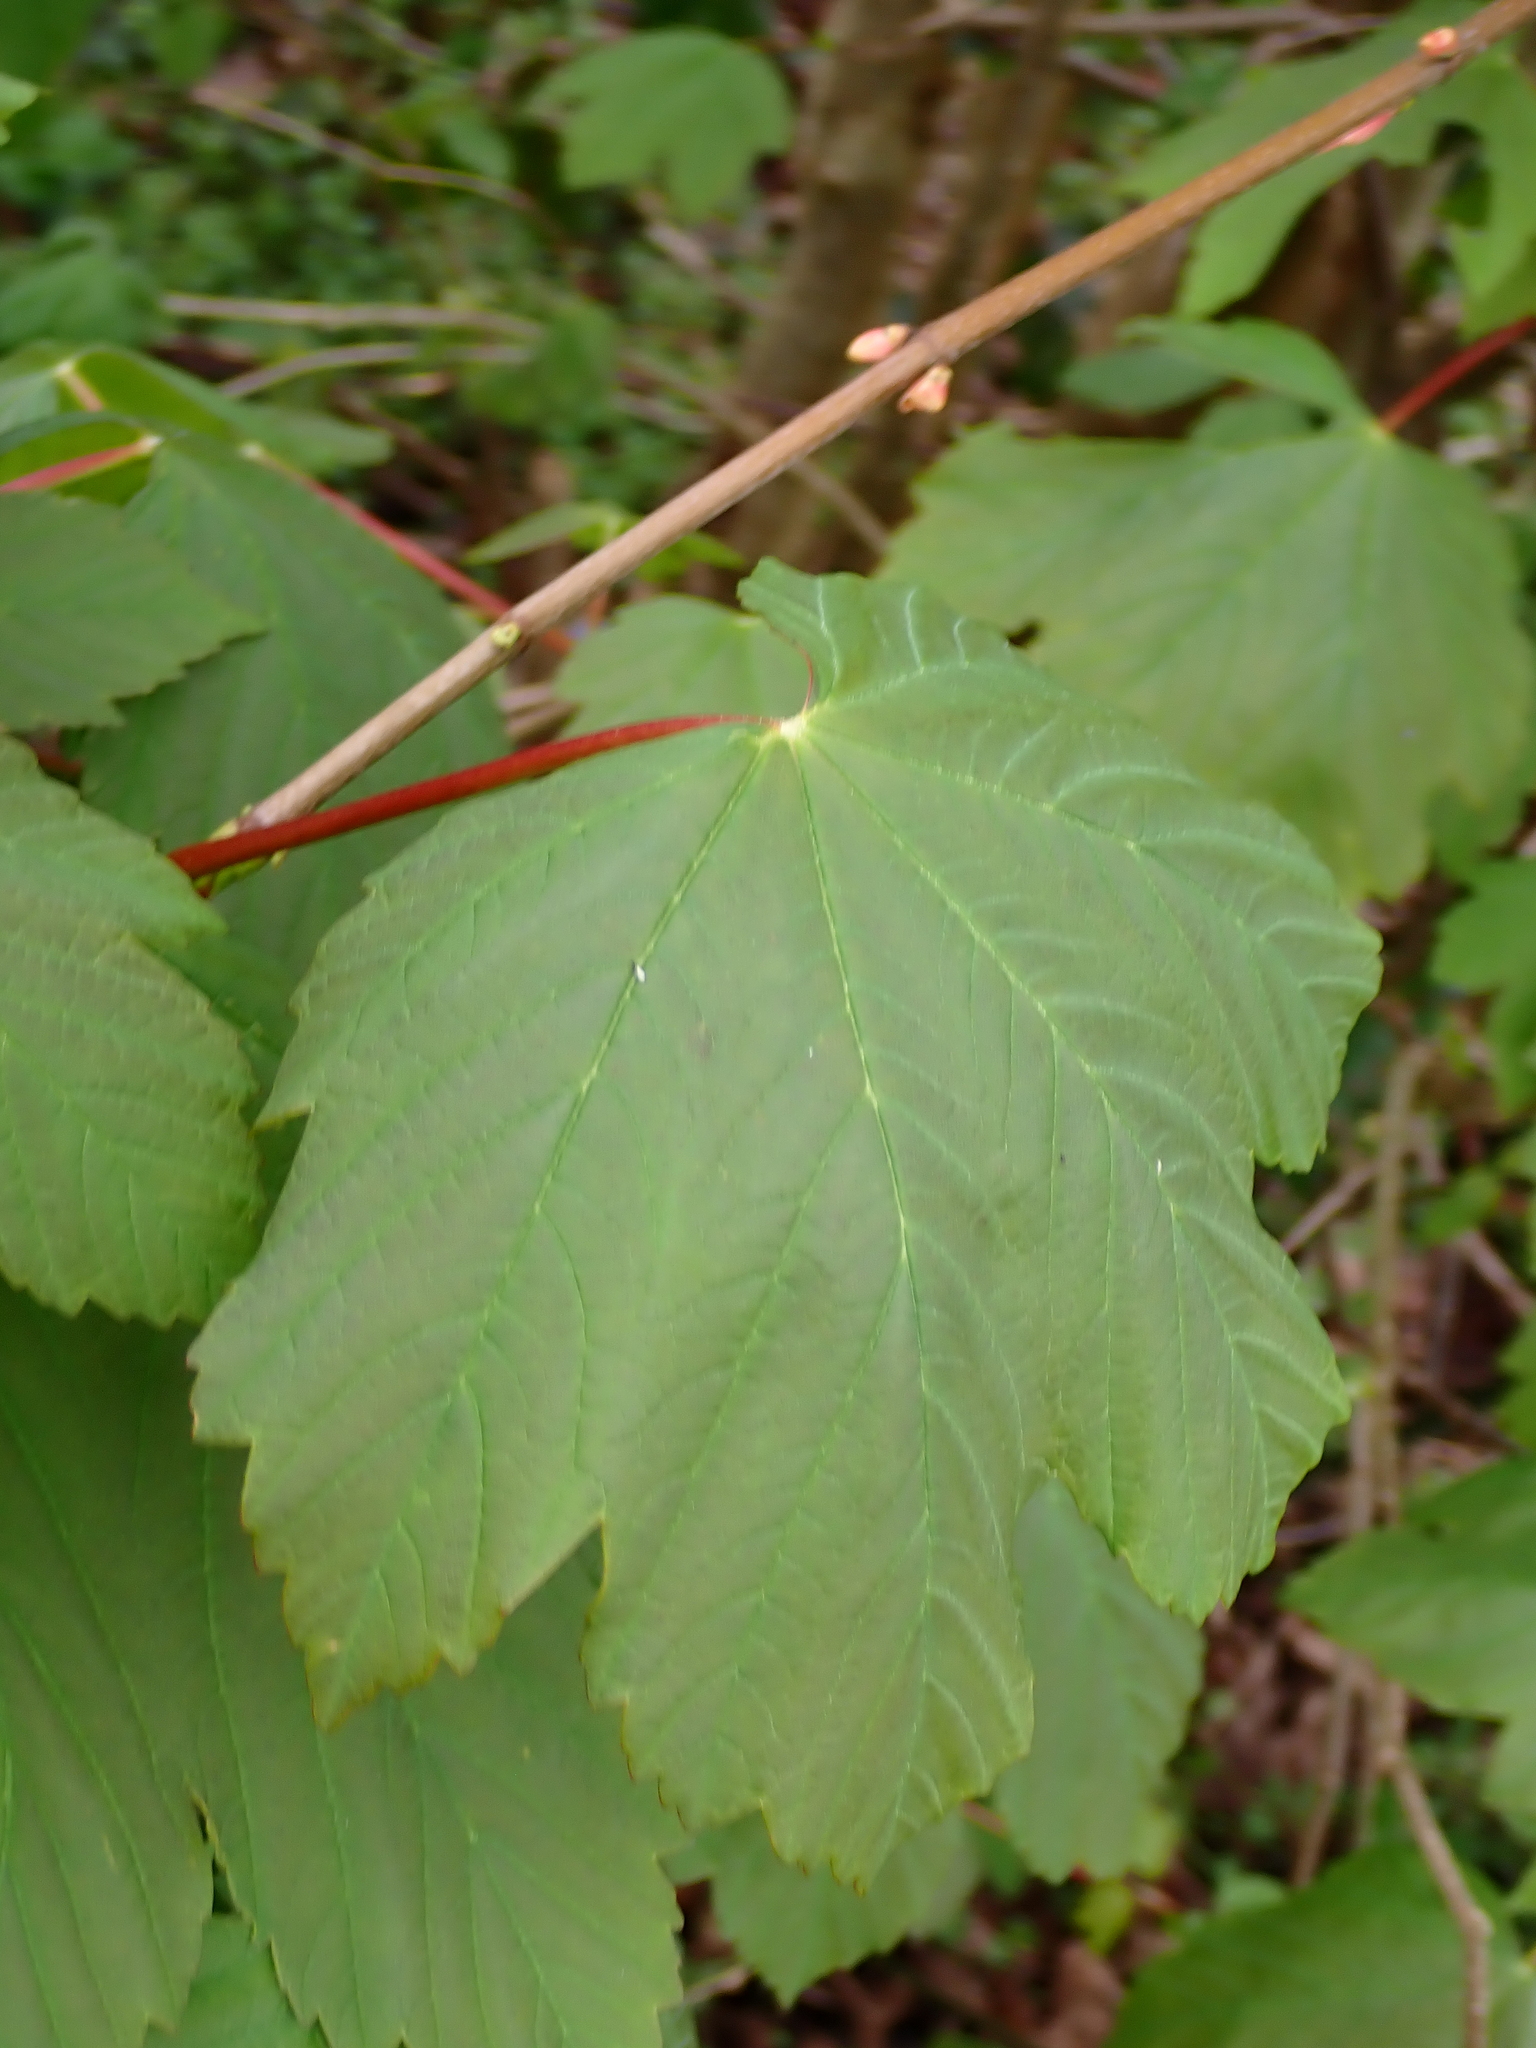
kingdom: Plantae
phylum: Tracheophyta
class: Magnoliopsida
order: Sapindales
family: Sapindaceae
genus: Acer
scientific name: Acer pseudoplatanus
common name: Sycamore
